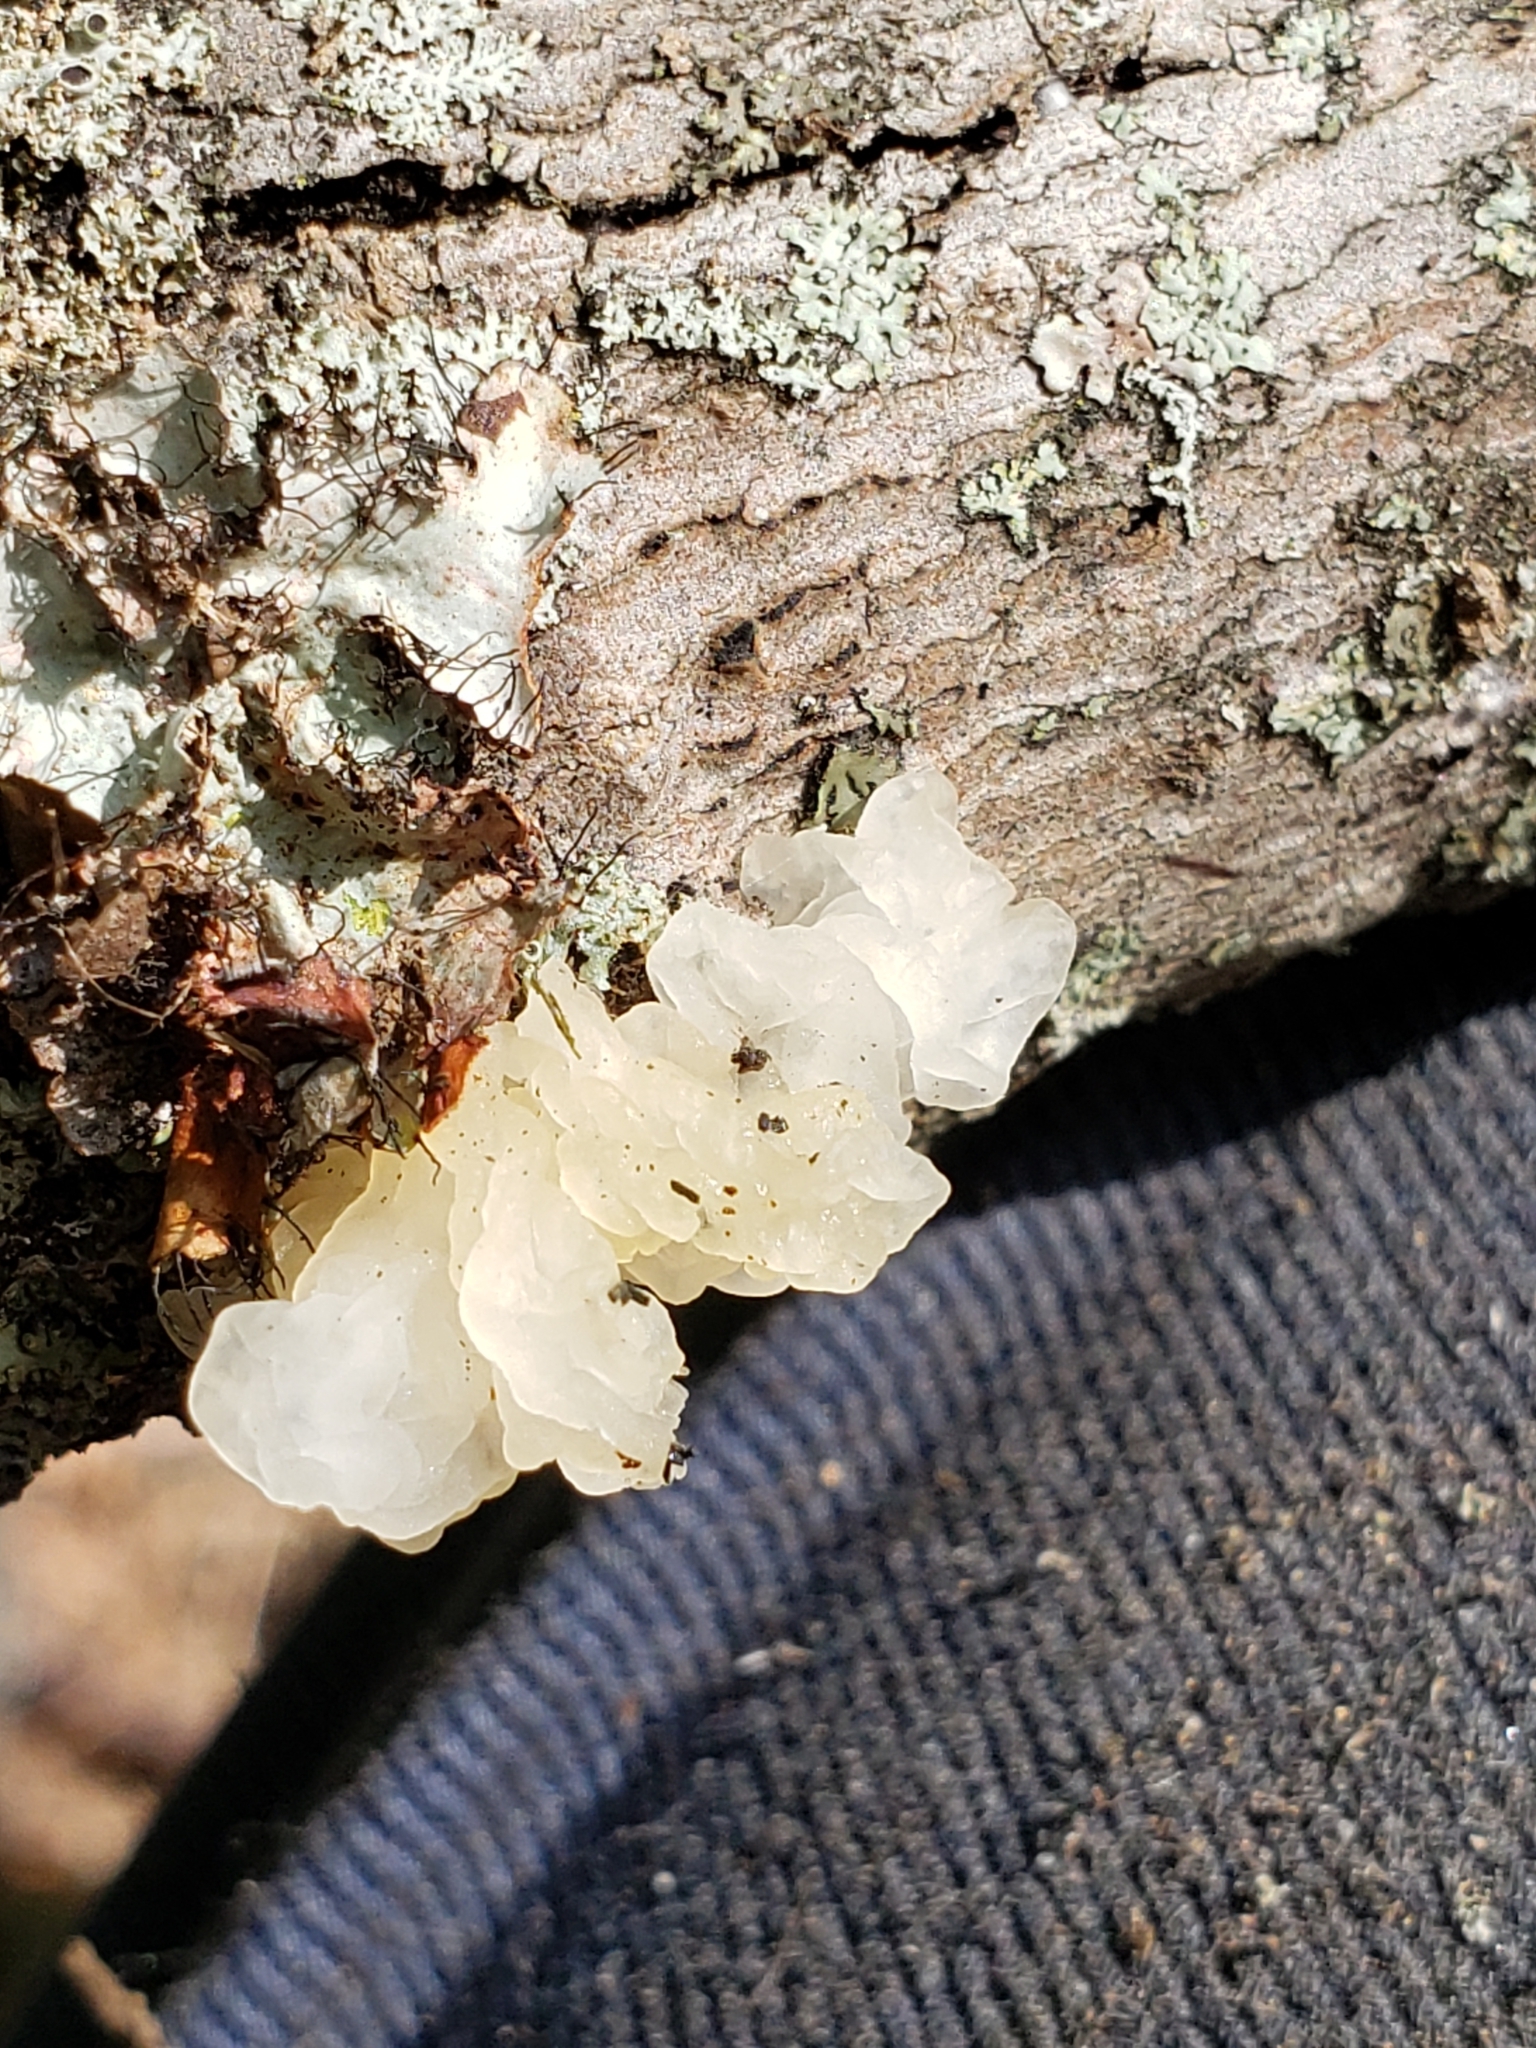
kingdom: Fungi
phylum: Basidiomycota
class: Agaricomycetes
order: Auriculariales
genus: Ductifera
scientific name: Ductifera pululahuana
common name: White jelly fungus
